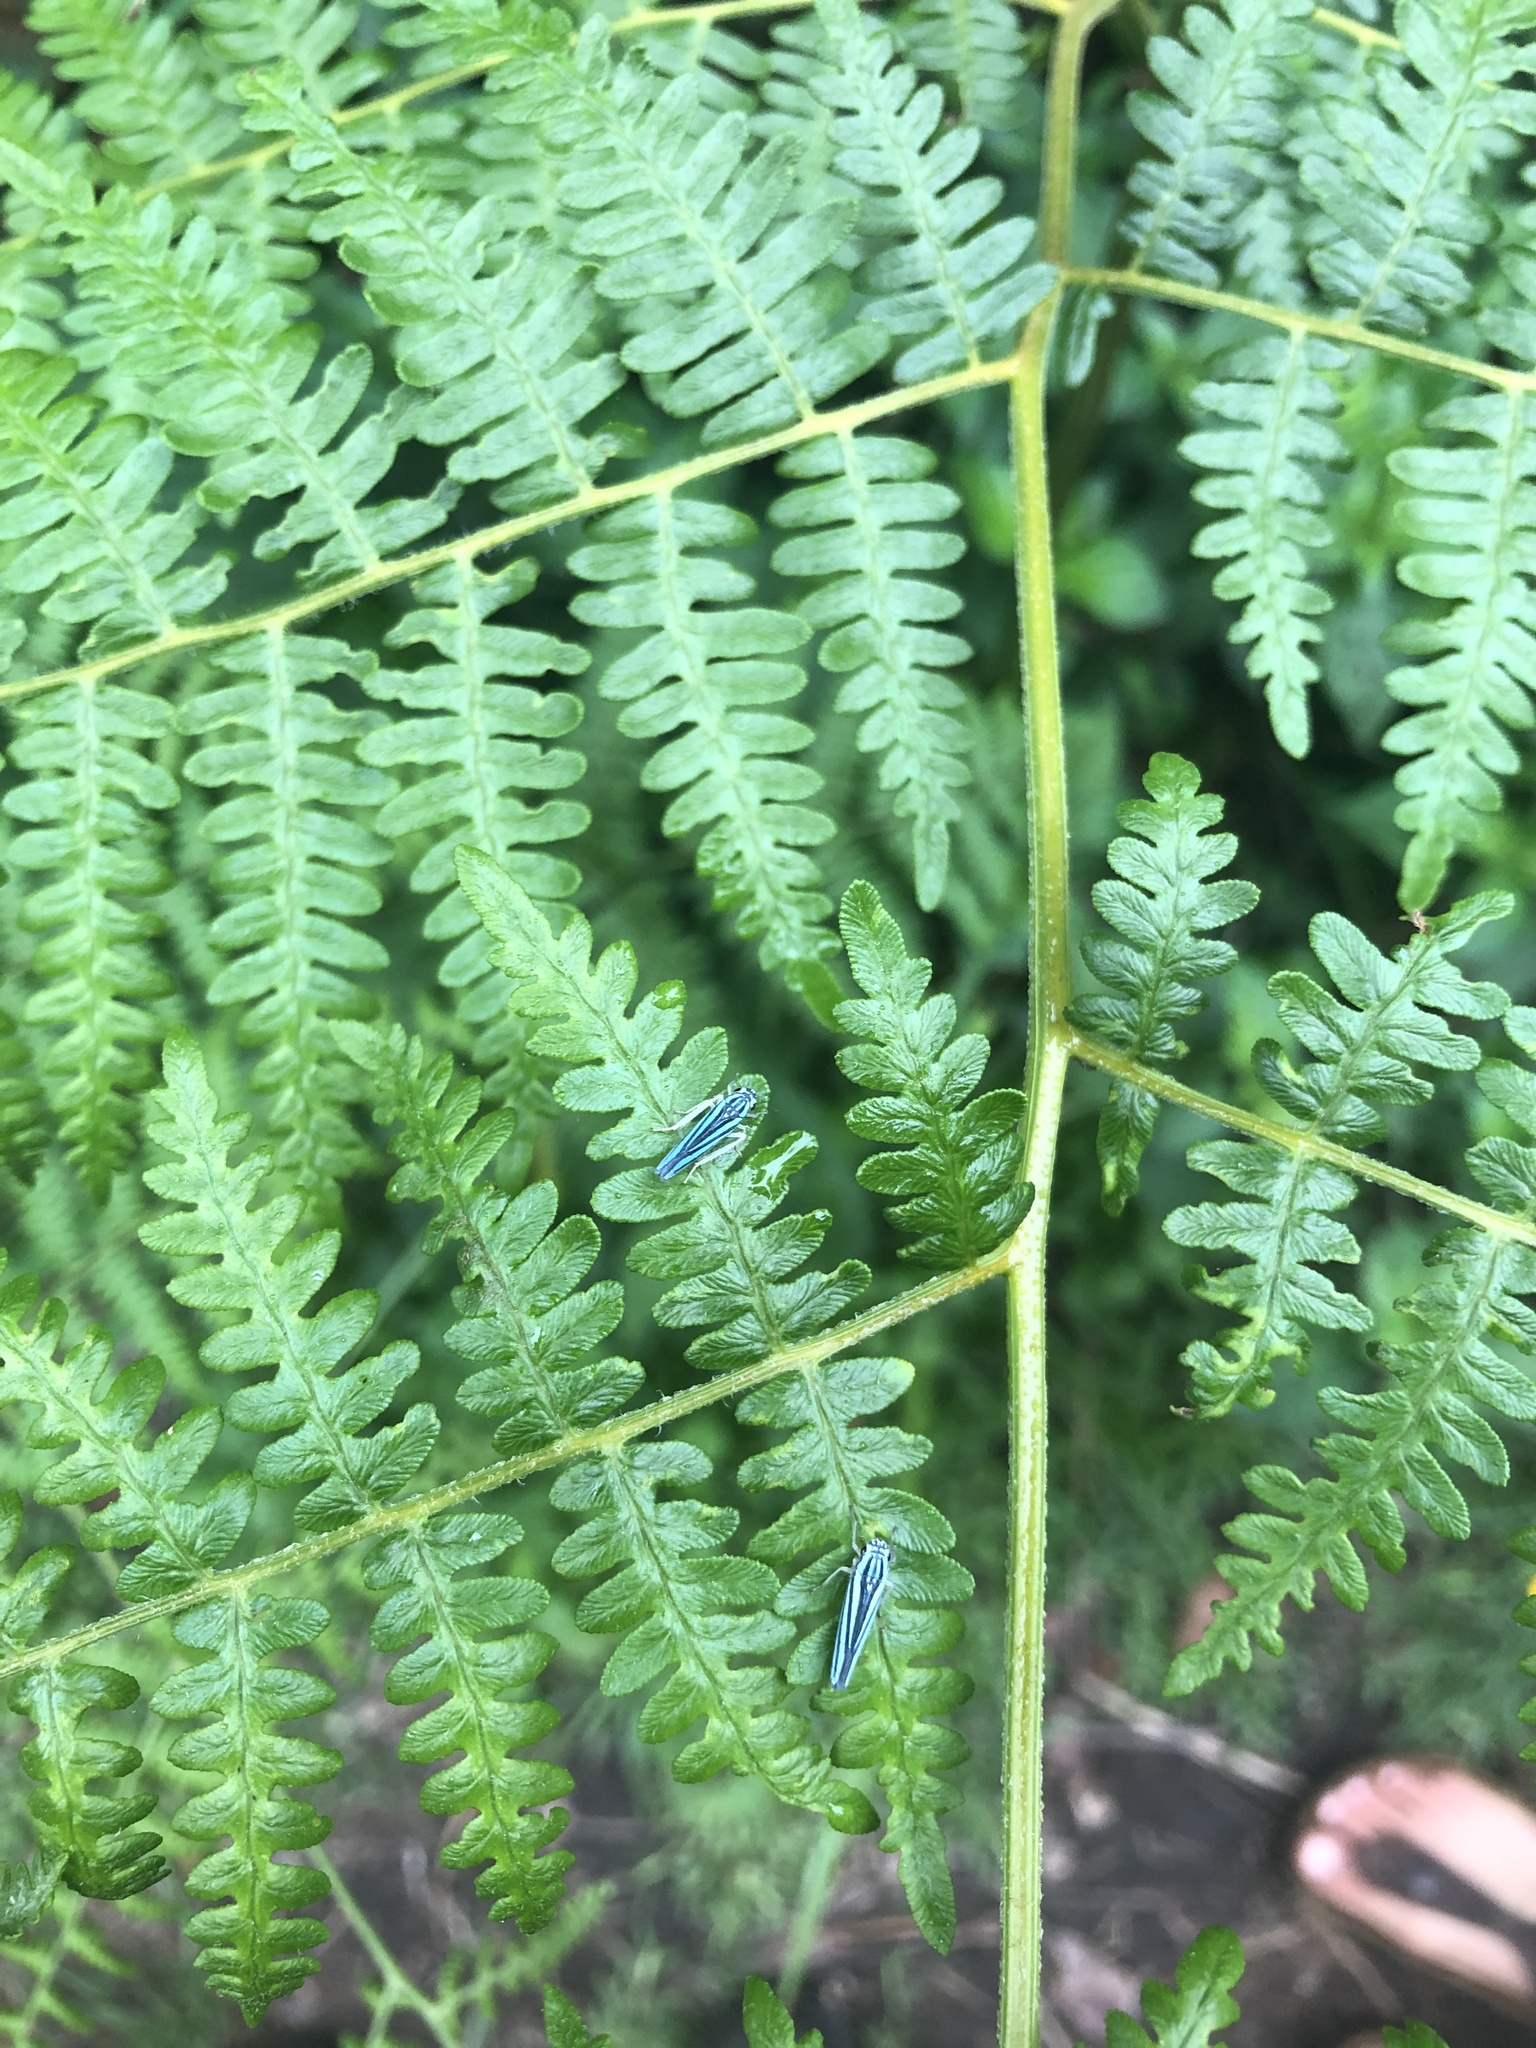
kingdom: Plantae
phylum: Tracheophyta
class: Polypodiopsida
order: Polypodiales
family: Dennstaedtiaceae
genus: Pteridium
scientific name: Pteridium aquilinum
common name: Bracken
